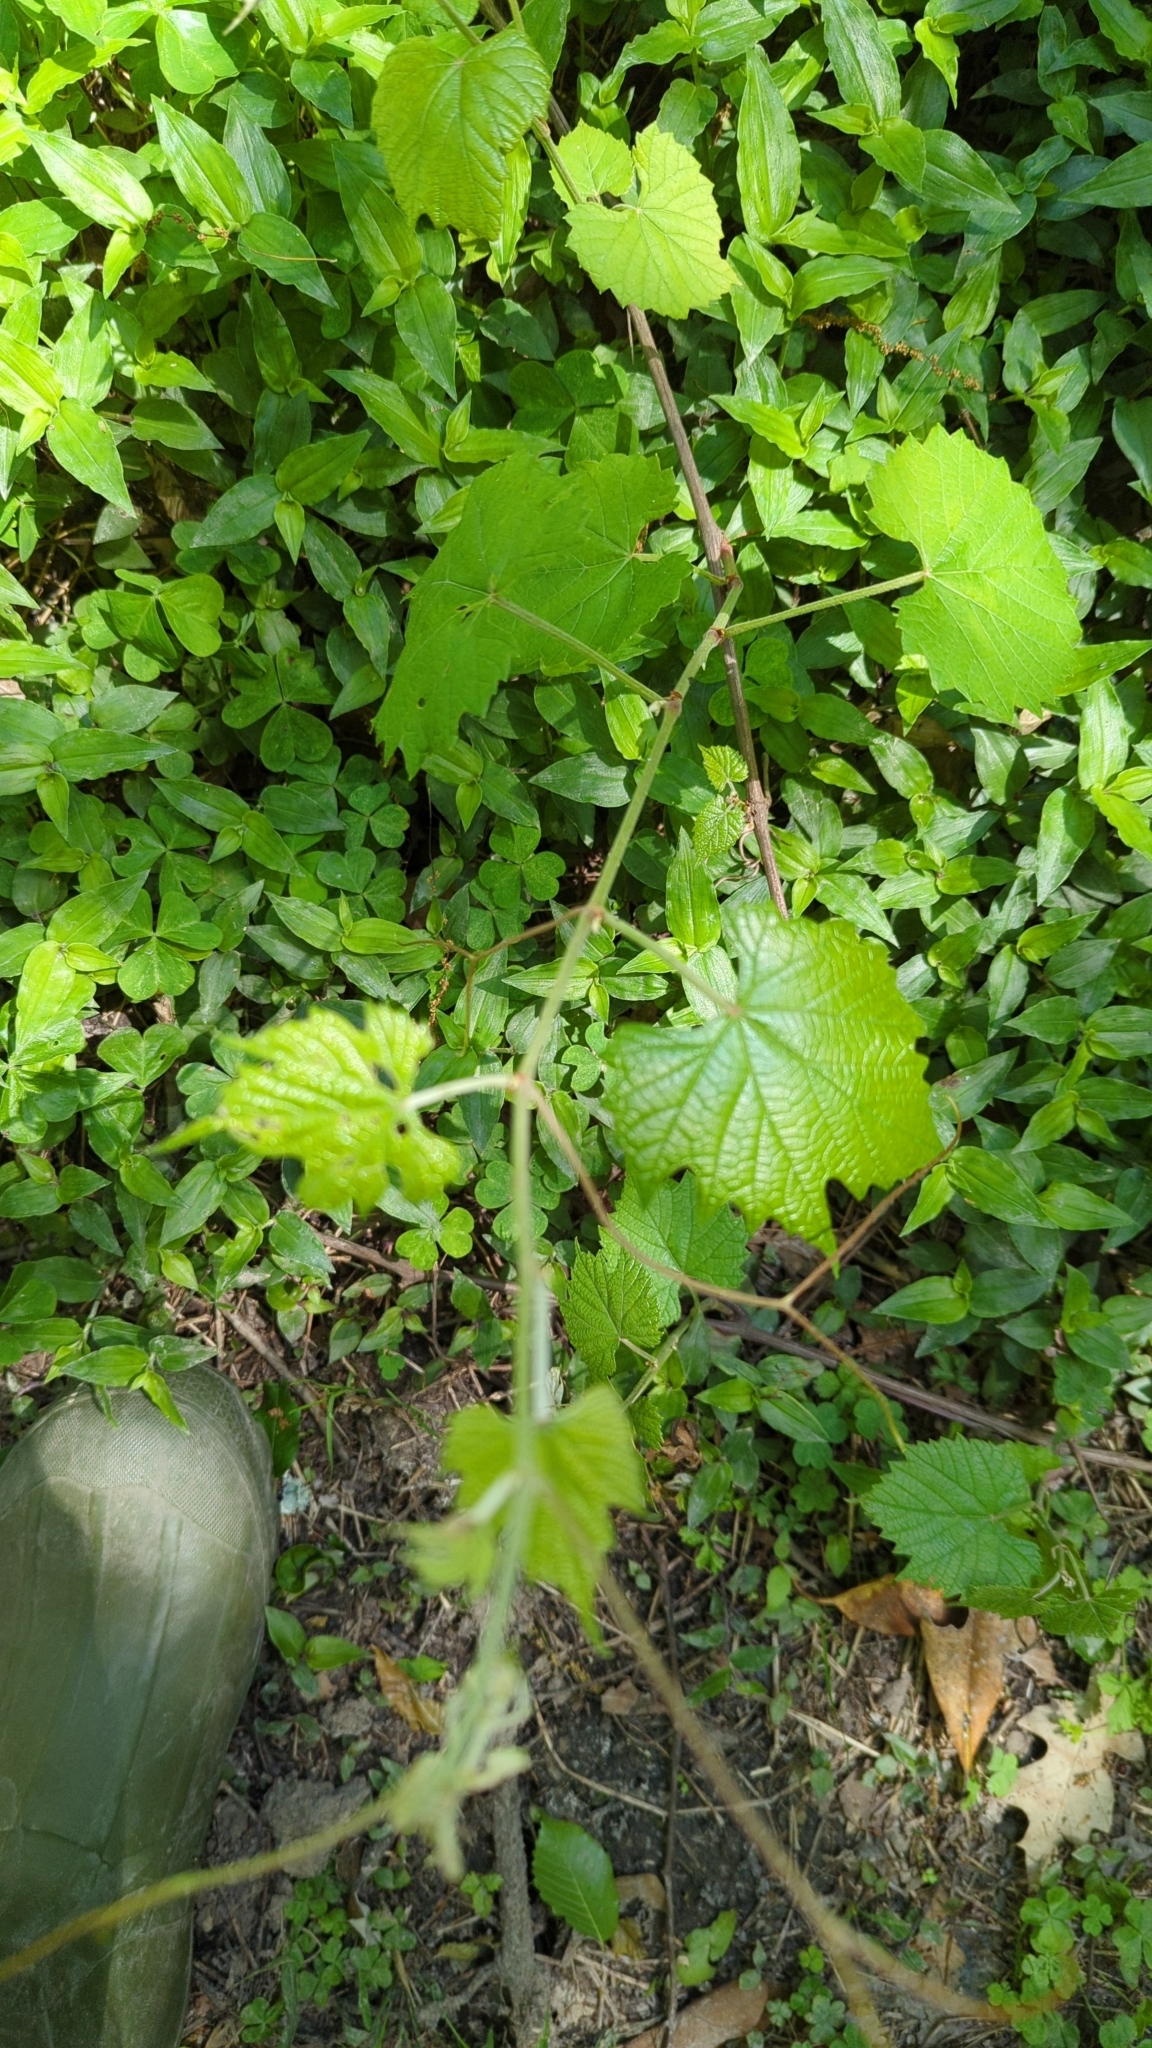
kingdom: Plantae
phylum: Tracheophyta
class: Magnoliopsida
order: Vitales
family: Vitaceae
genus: Vitis
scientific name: Vitis rotundifolia
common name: Muscadine grape
